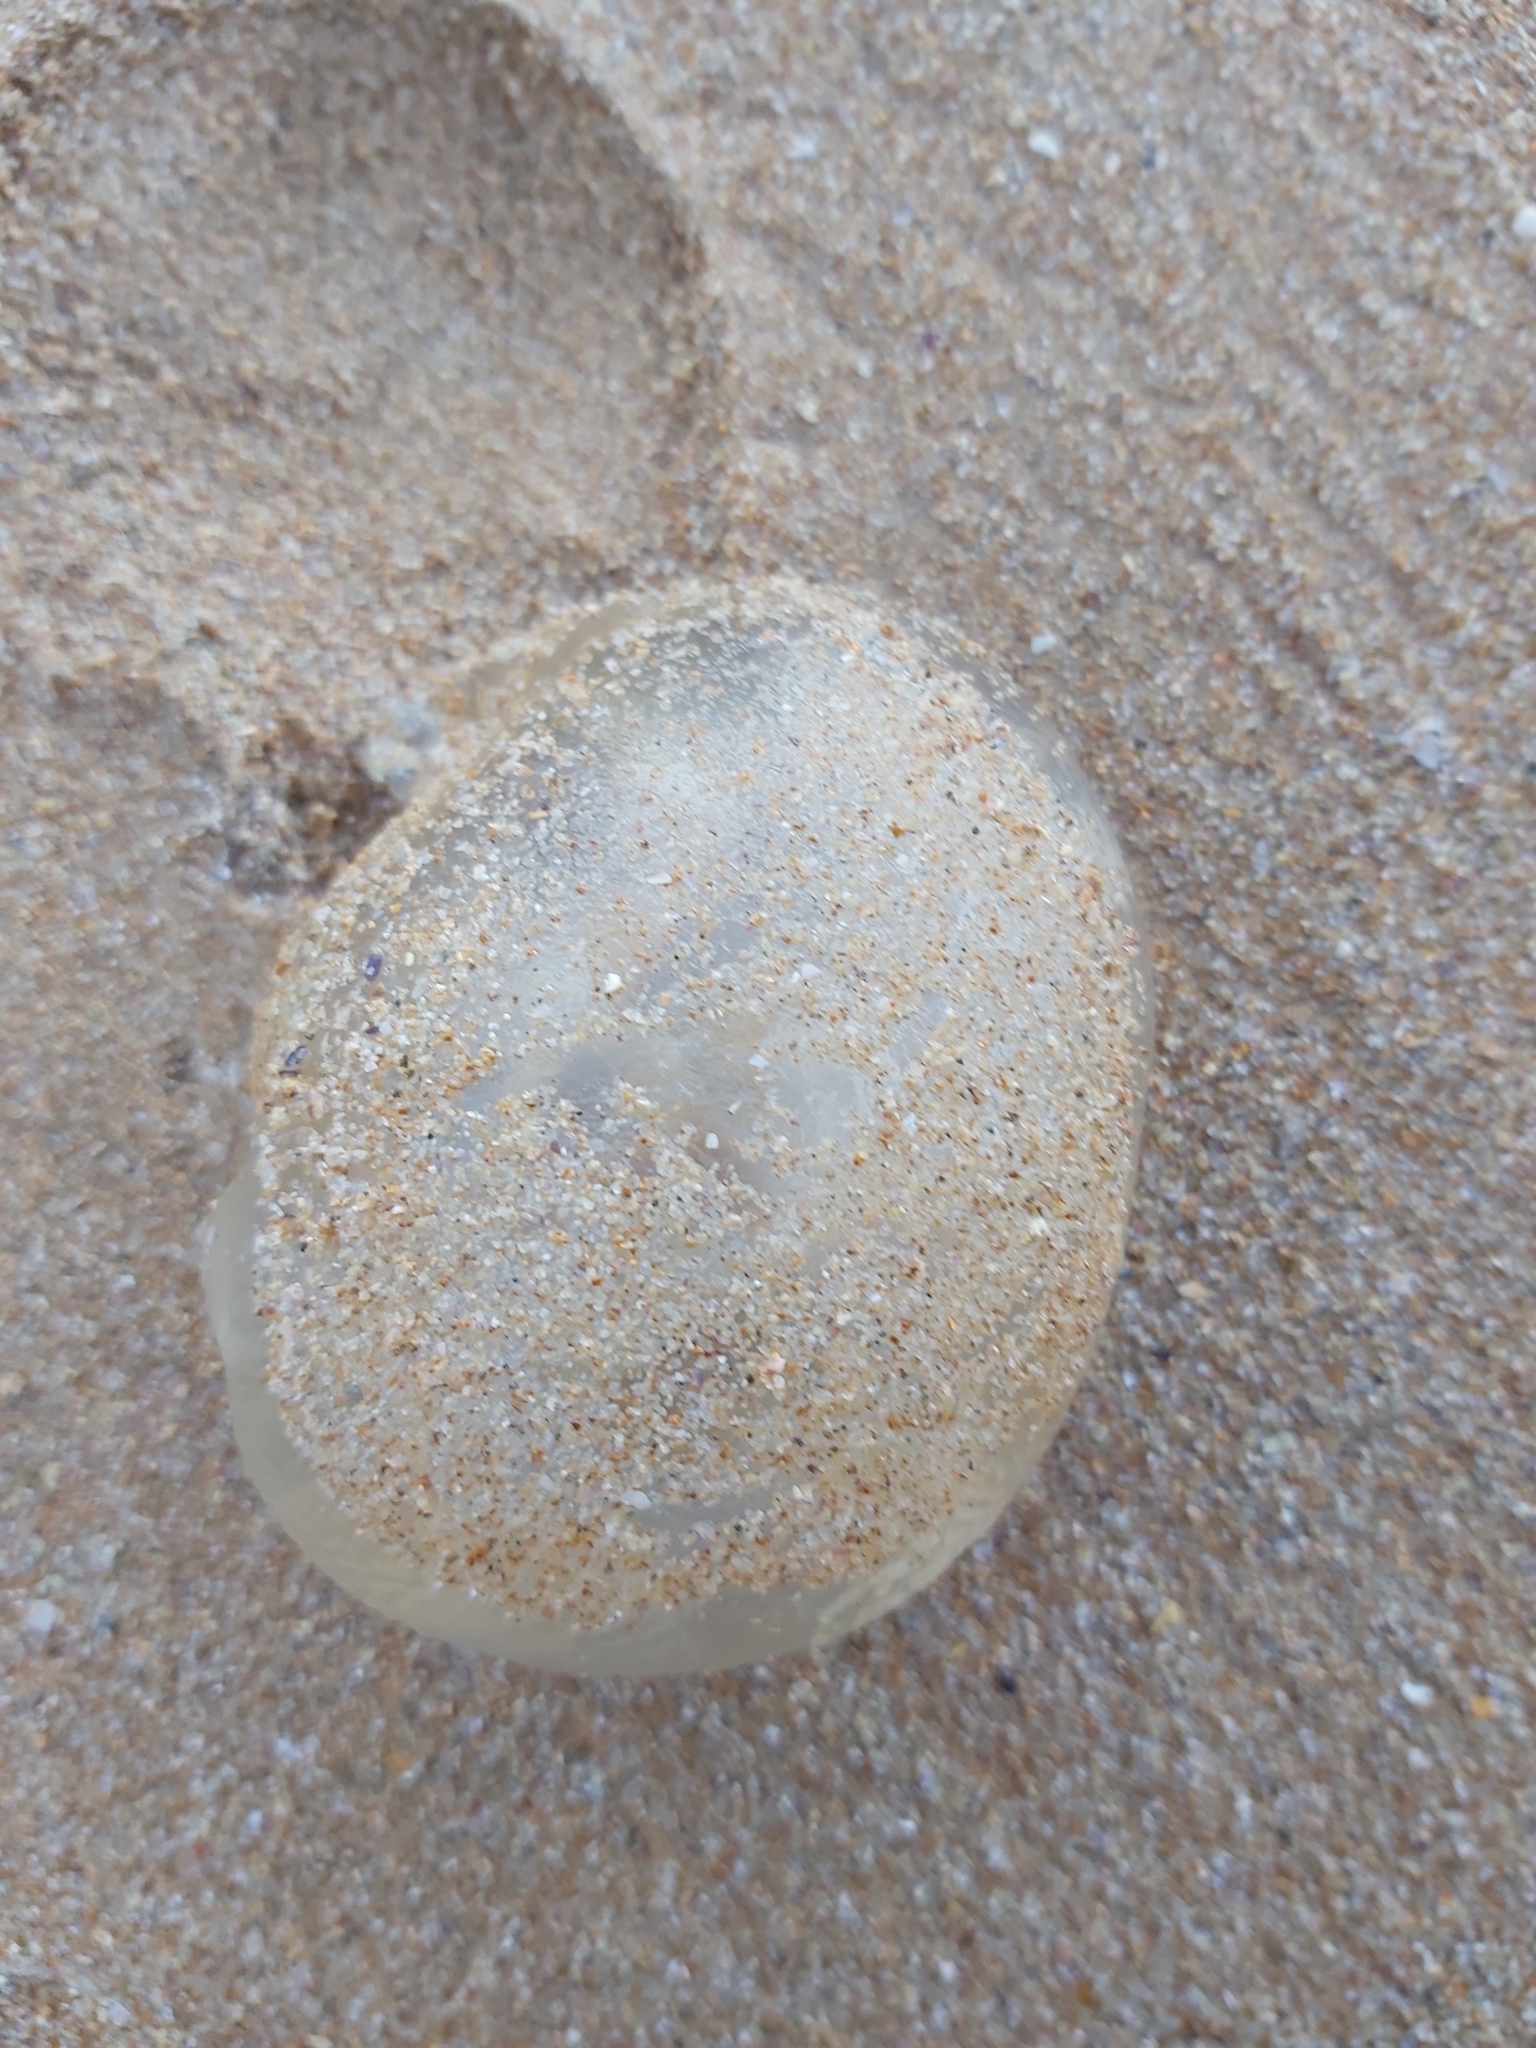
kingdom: Animalia
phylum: Cnidaria
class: Scyphozoa
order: Rhizostomeae
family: Catostylidae
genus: Catostylus
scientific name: Catostylus mosaicus
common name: Blue blubber
